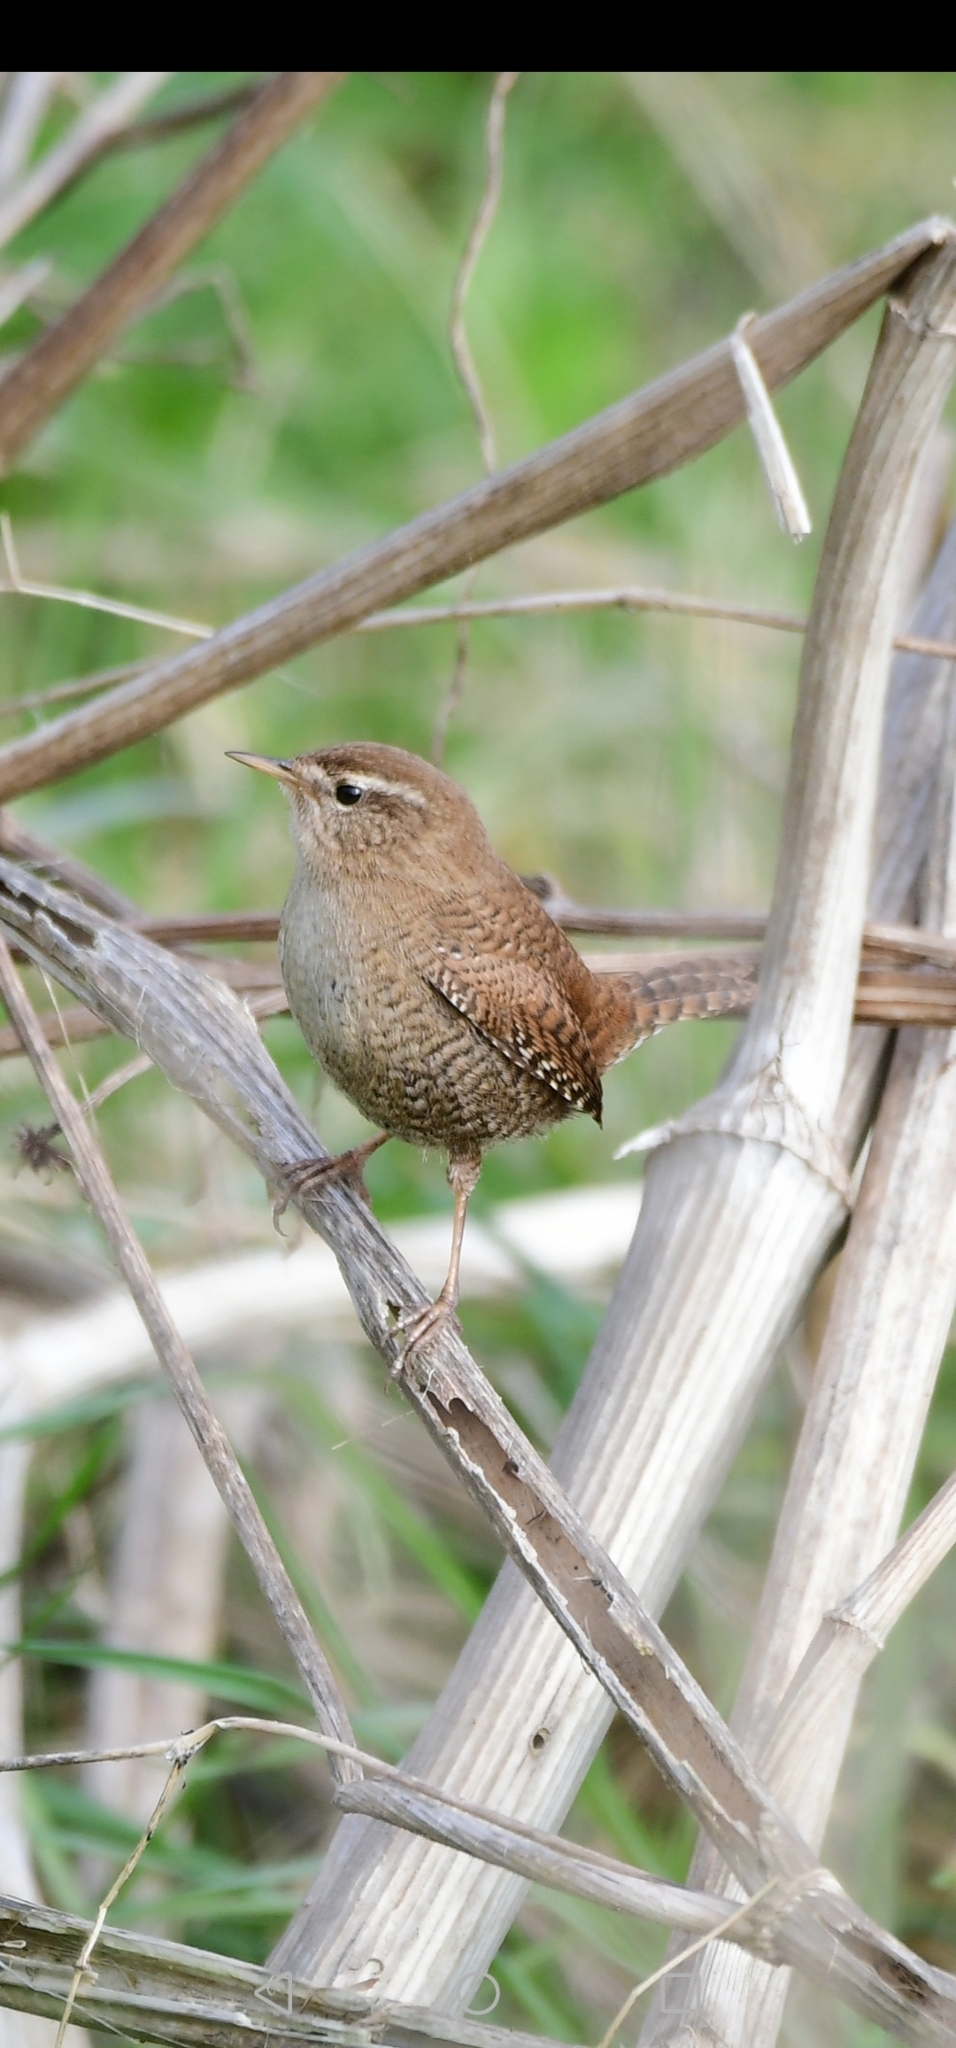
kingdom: Animalia
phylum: Chordata
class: Aves
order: Passeriformes
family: Troglodytidae
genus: Troglodytes
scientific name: Troglodytes troglodytes
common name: Eurasian wren
